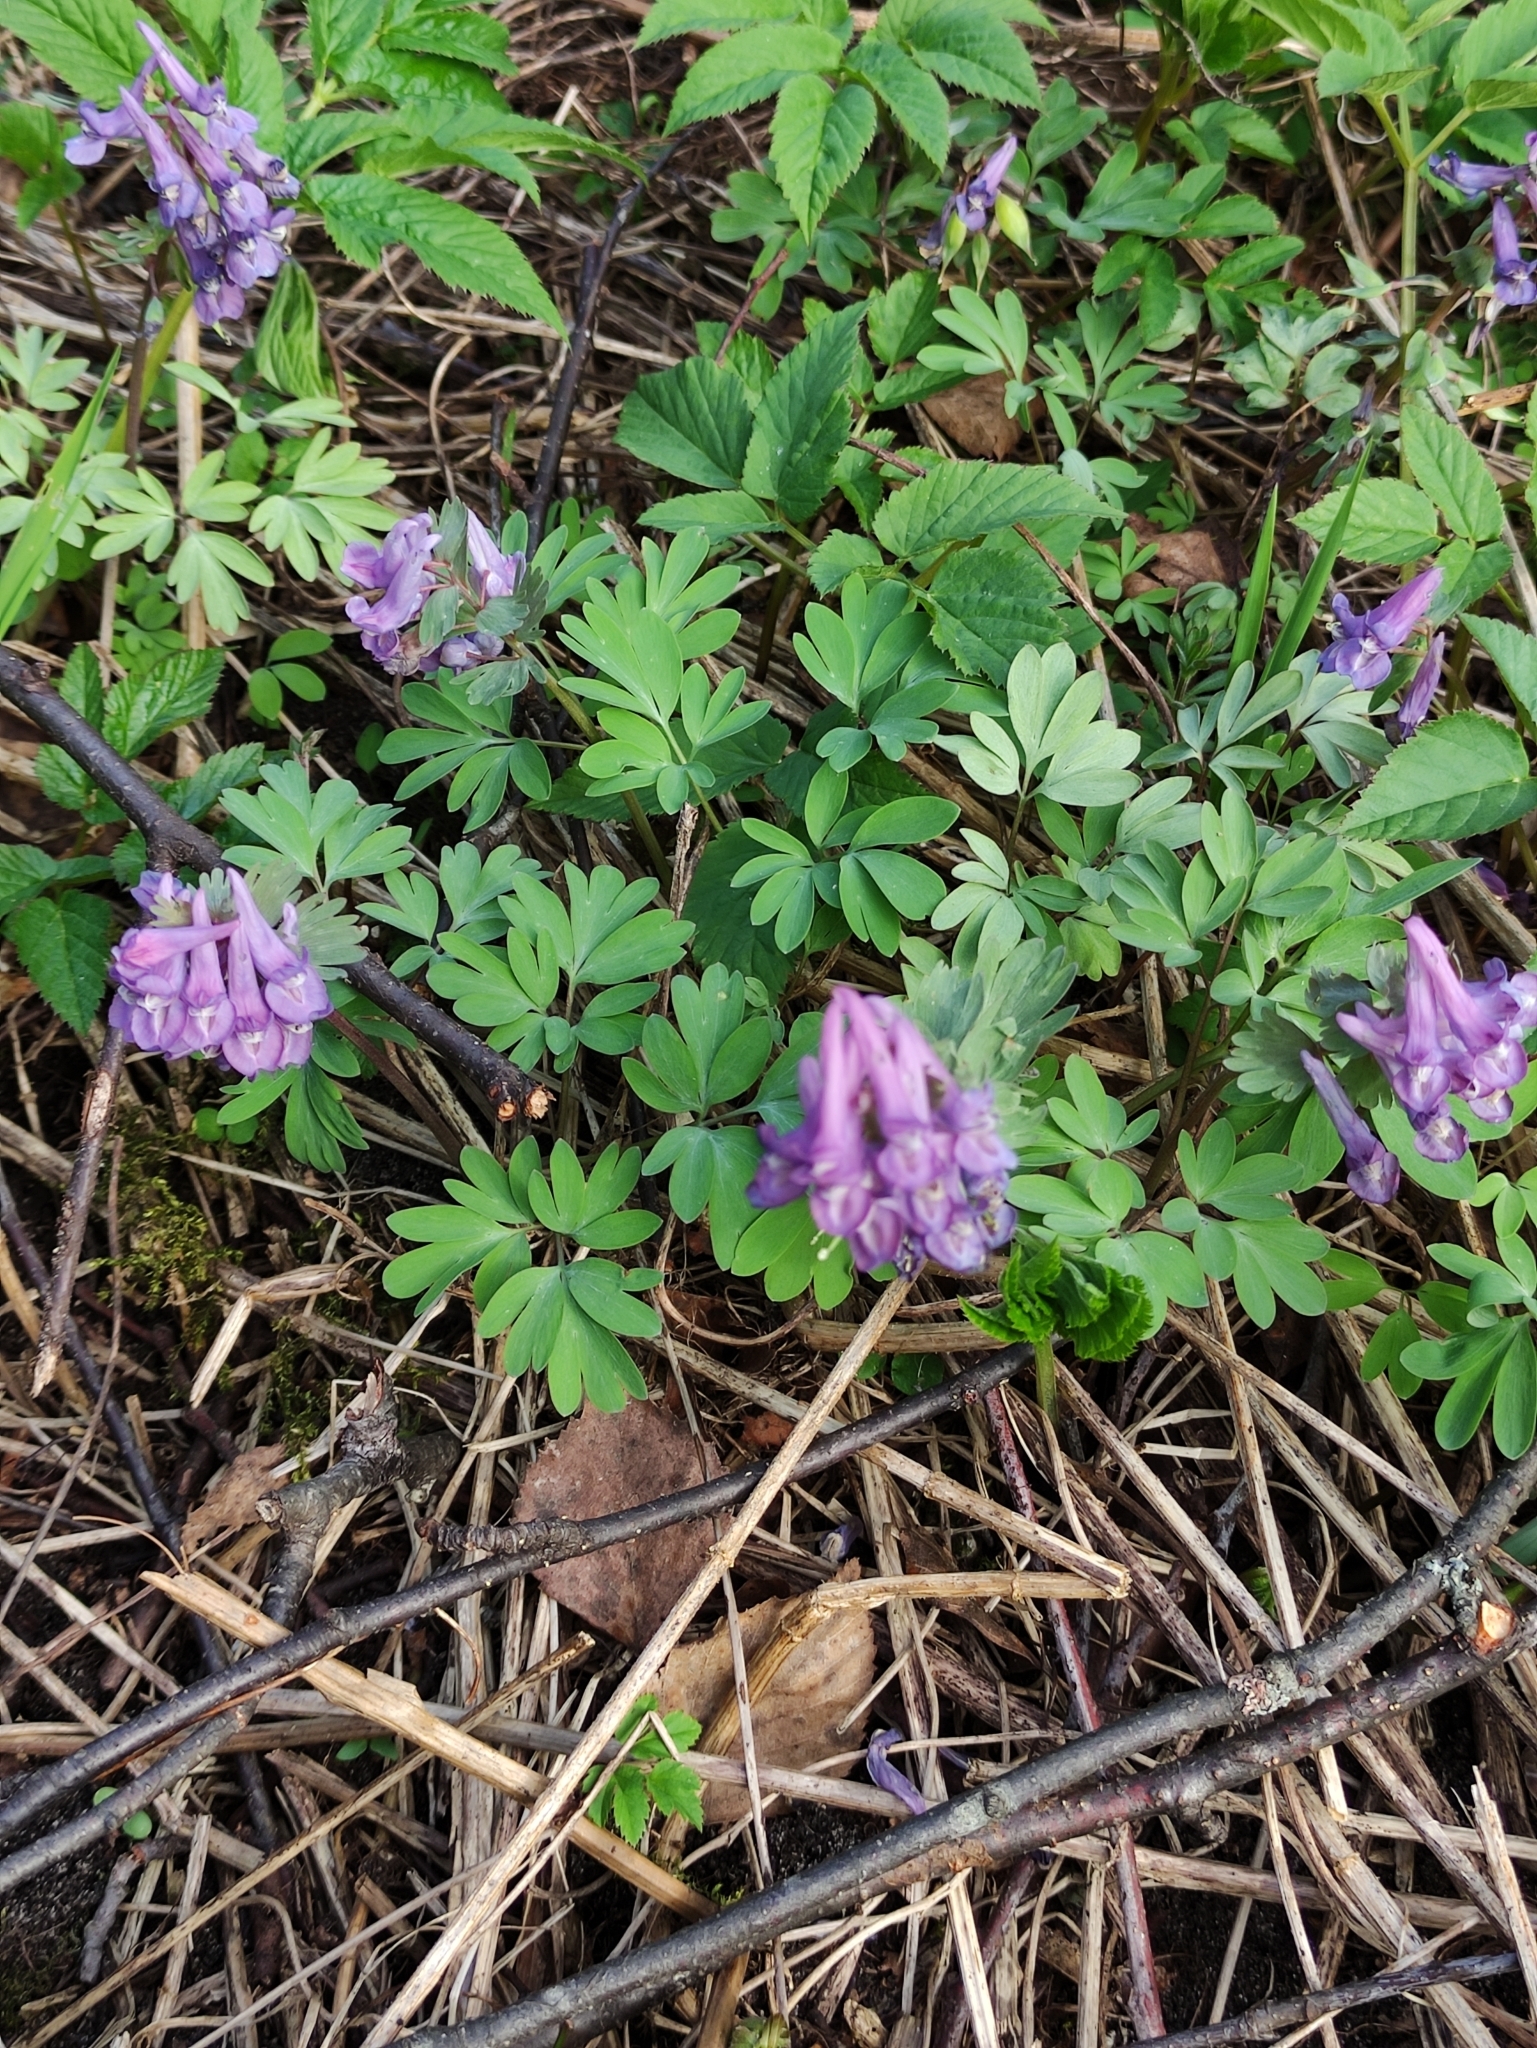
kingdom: Plantae
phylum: Tracheophyta
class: Magnoliopsida
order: Ranunculales
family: Papaveraceae
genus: Corydalis
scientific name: Corydalis solida
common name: Bird-in-a-bush
